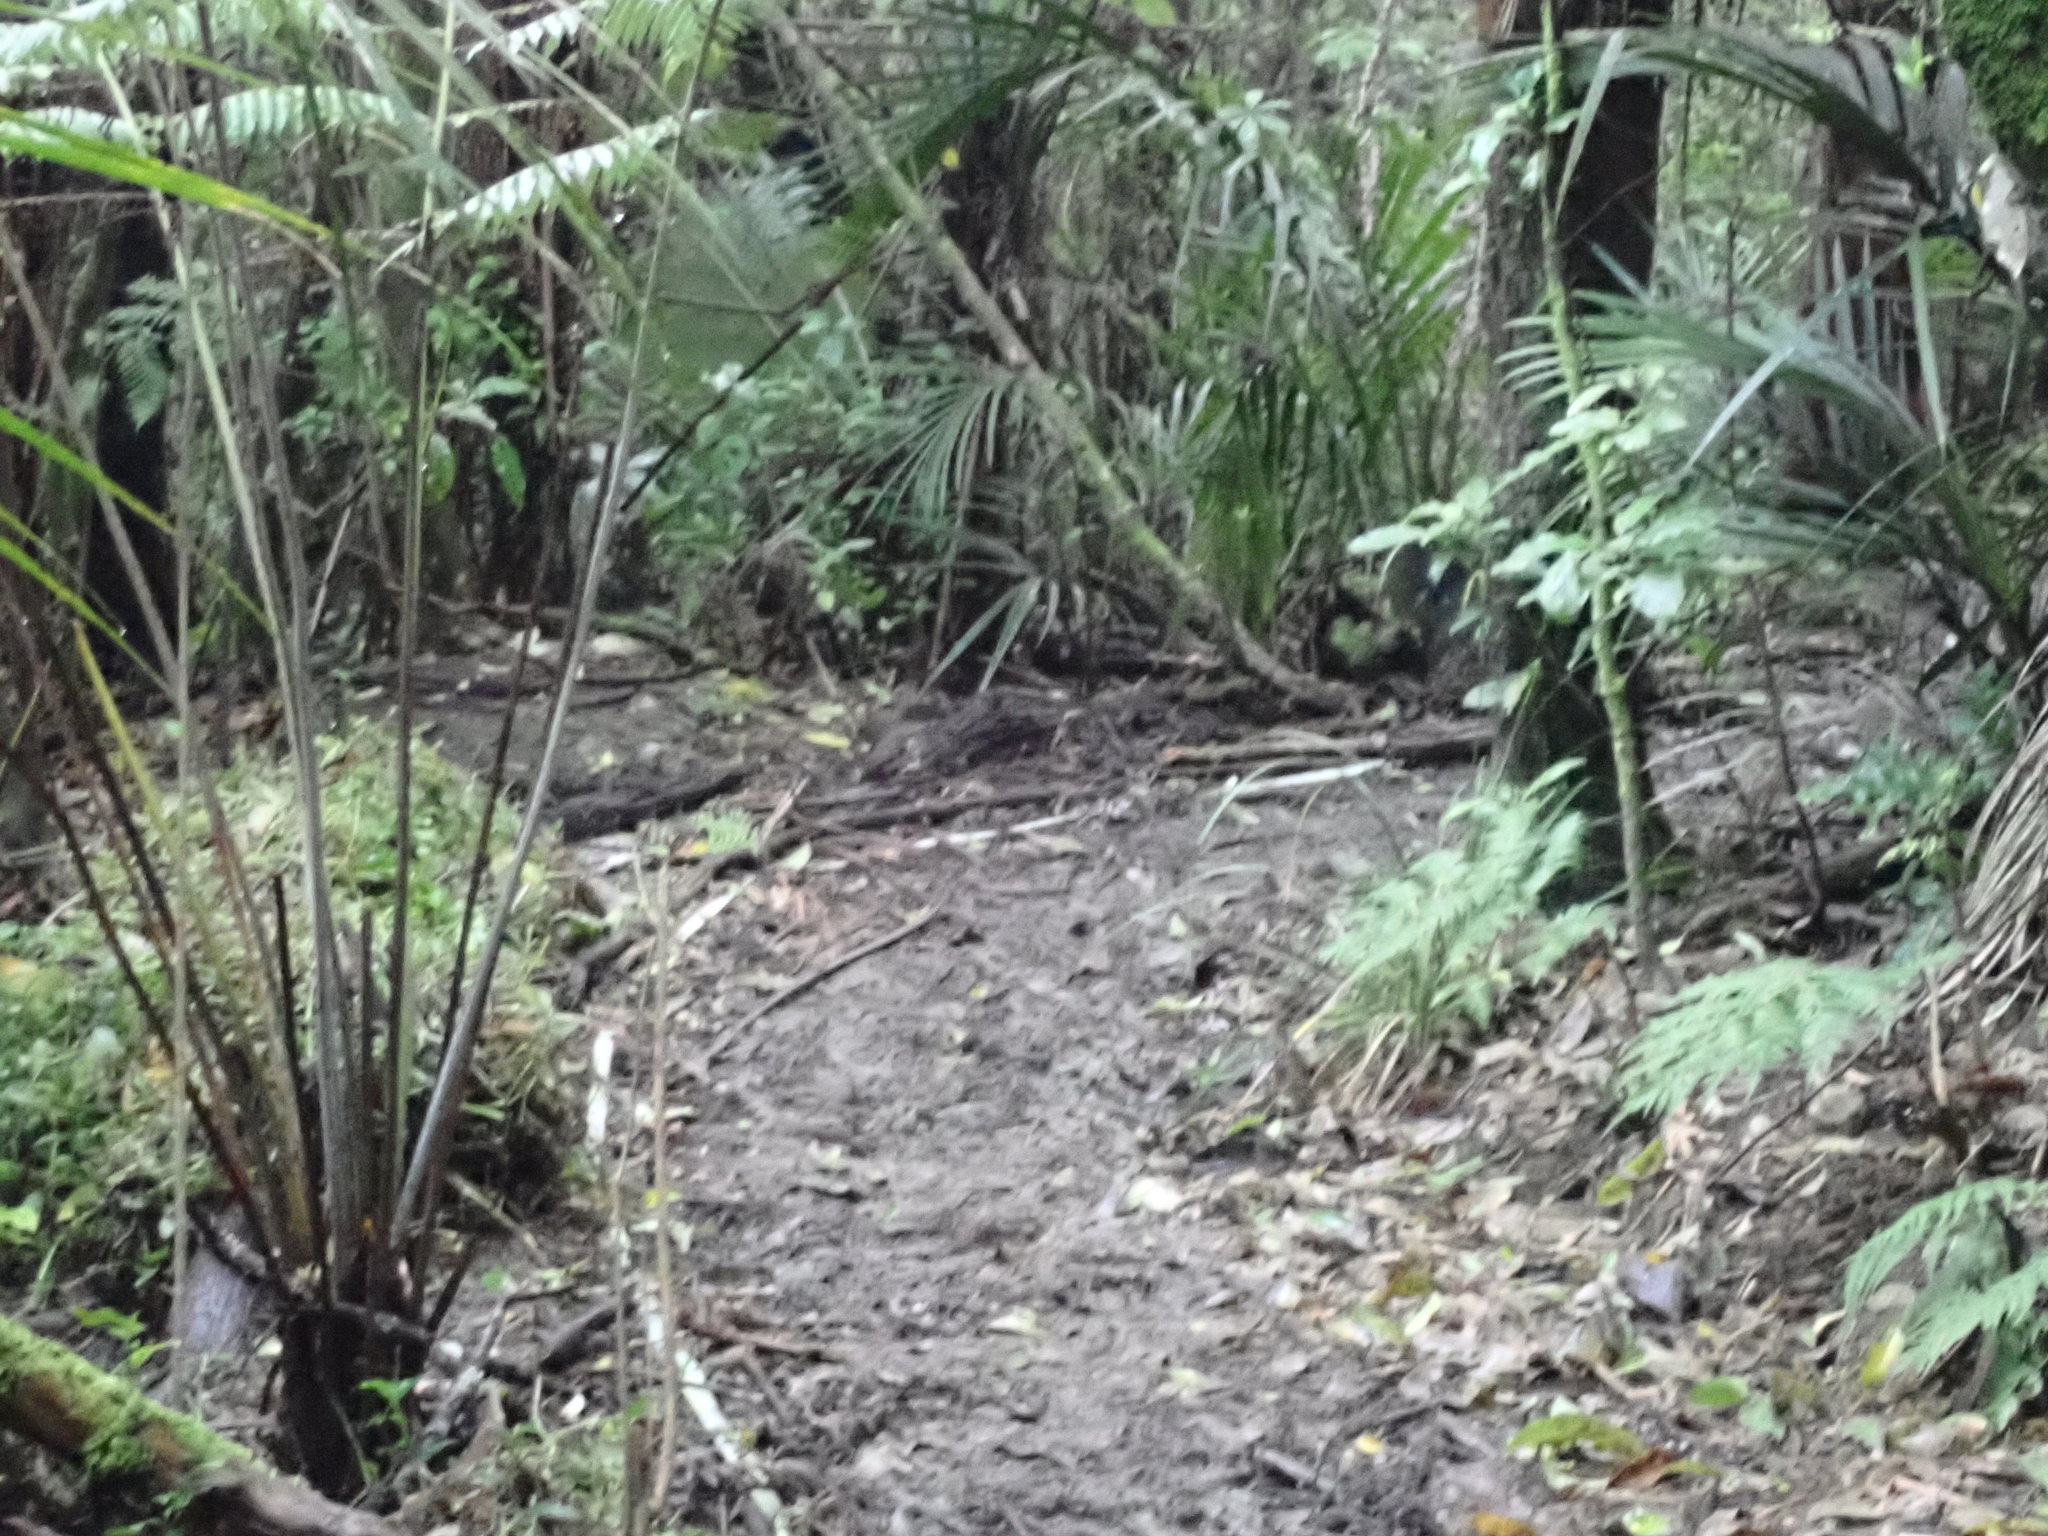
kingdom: Plantae
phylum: Tracheophyta
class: Polypodiopsida
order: Cyatheales
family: Cyatheaceae
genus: Alsophila
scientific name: Alsophila dealbata
